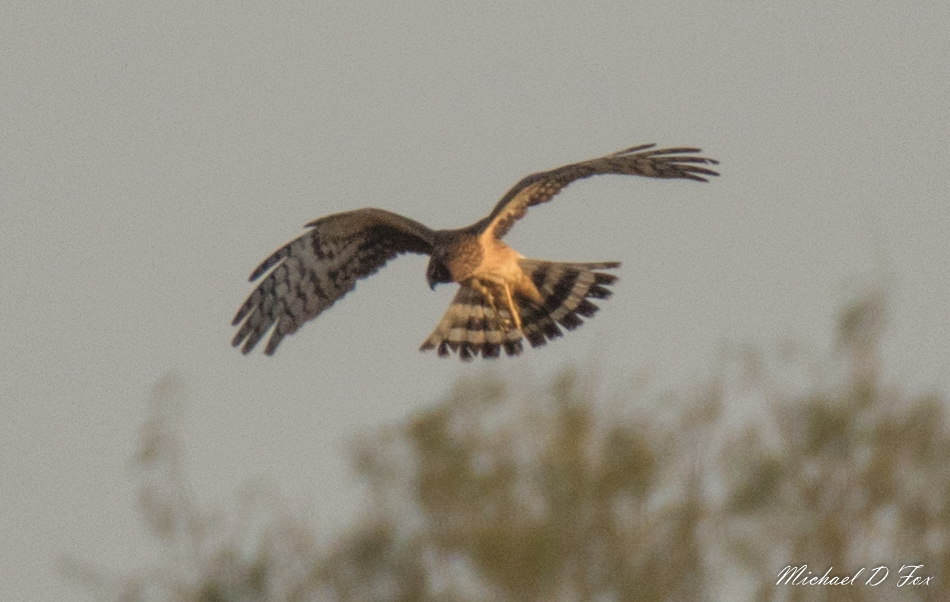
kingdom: Animalia
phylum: Chordata
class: Aves
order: Accipitriformes
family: Accipitridae
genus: Circus
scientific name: Circus cyaneus
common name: Hen harrier
